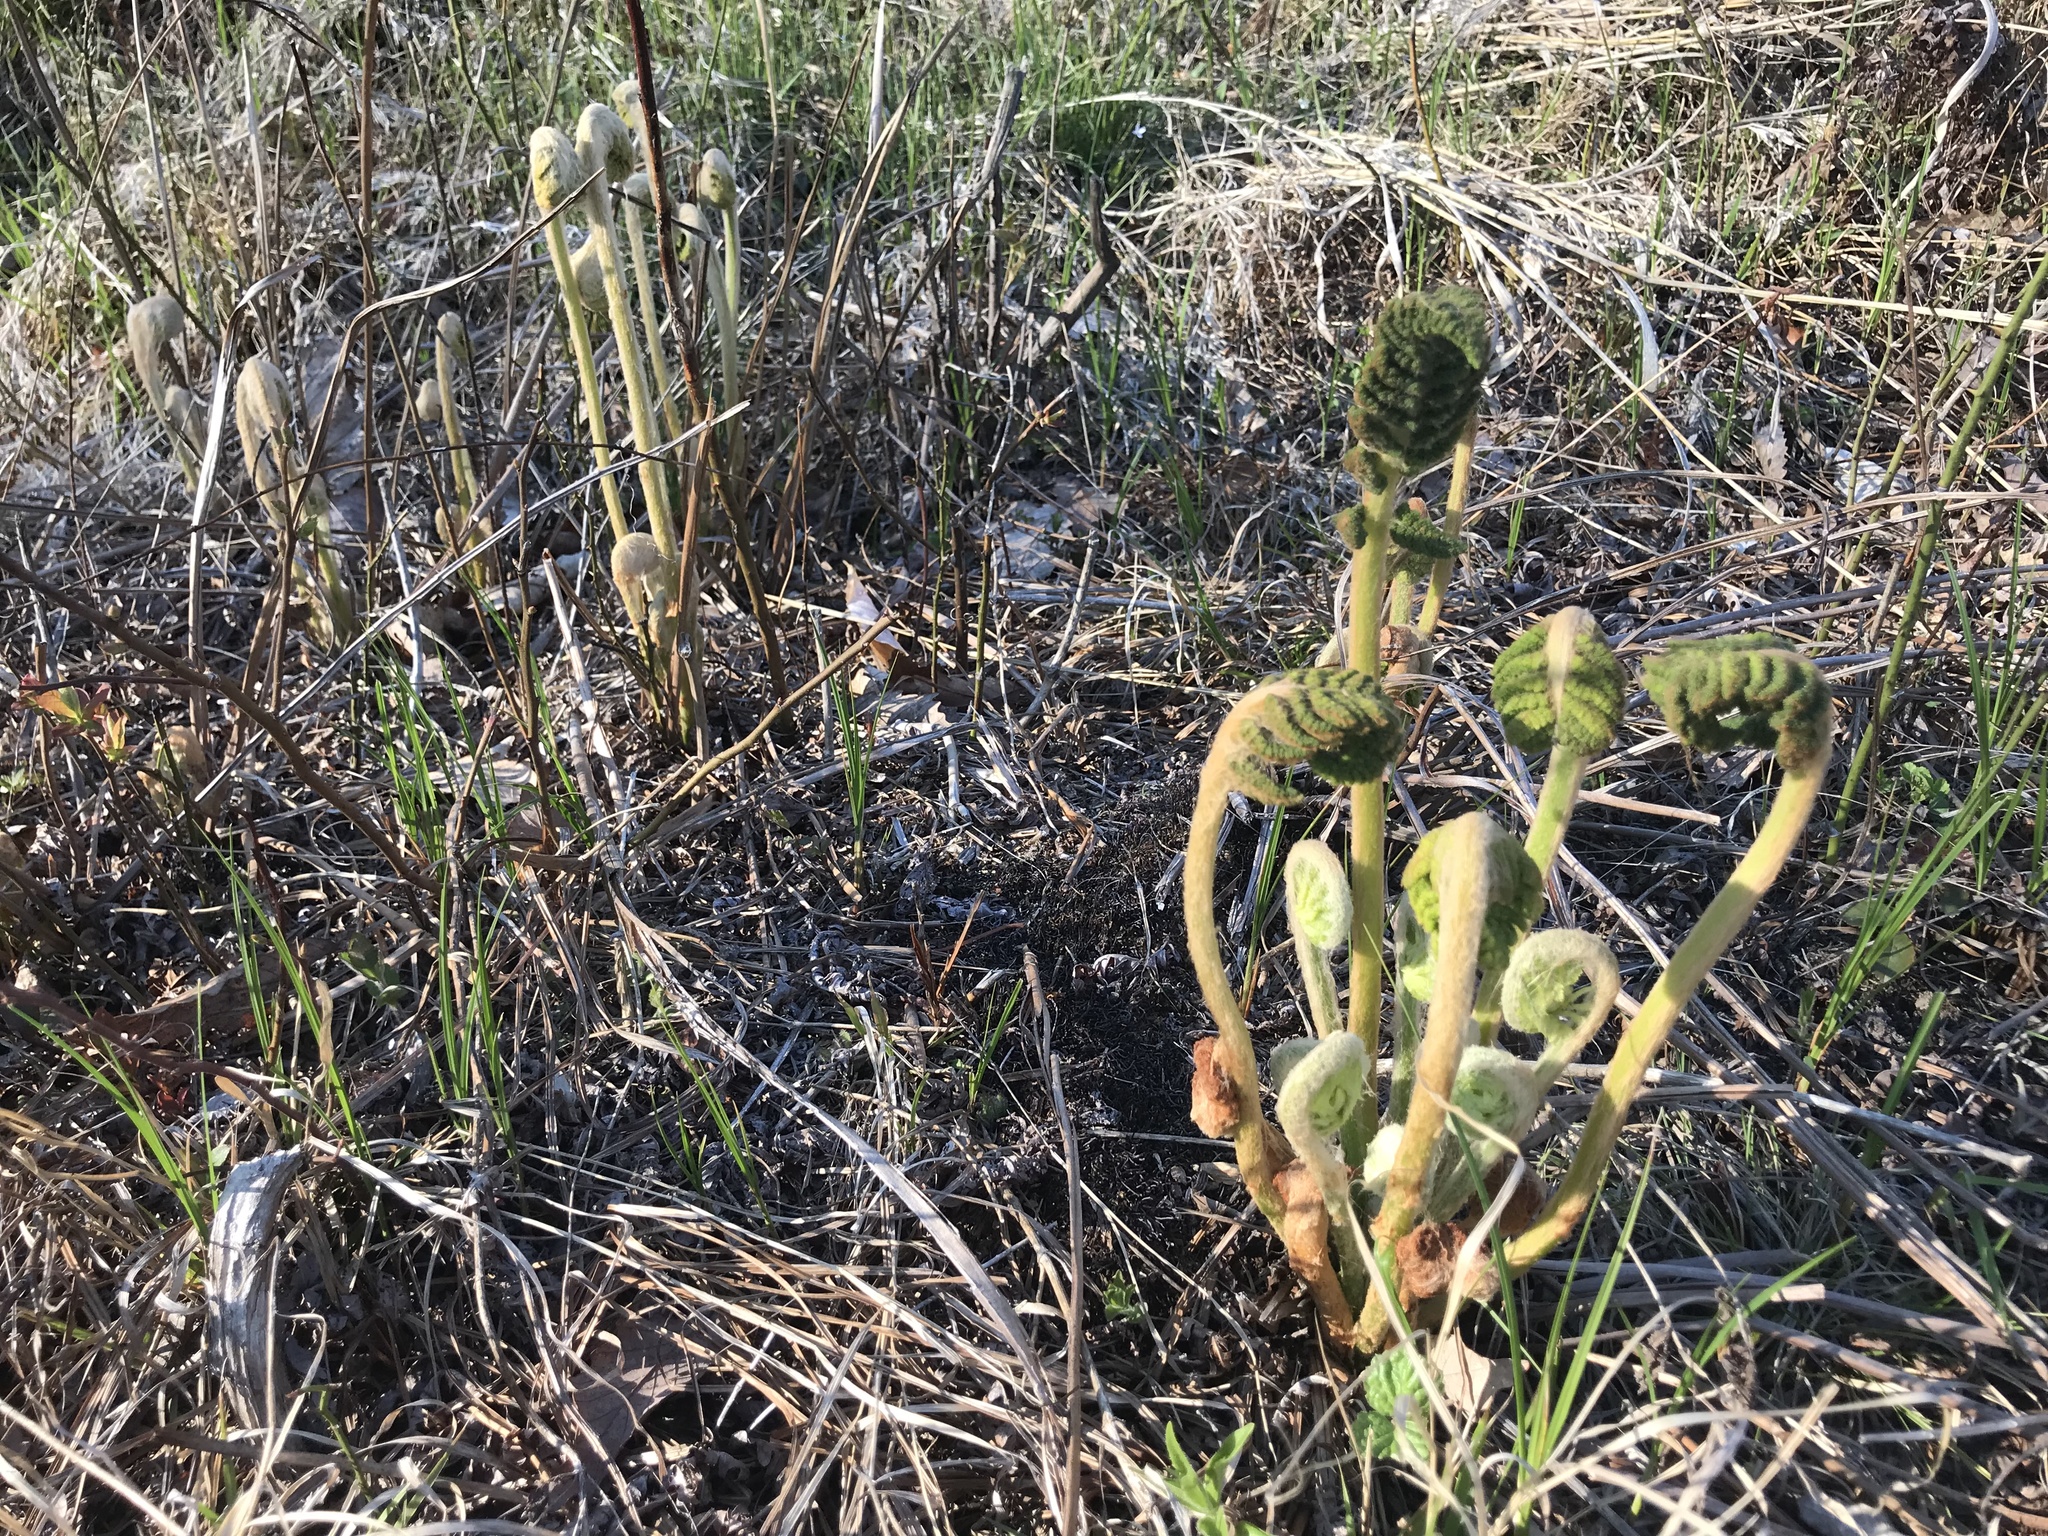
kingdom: Plantae
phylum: Tracheophyta
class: Polypodiopsida
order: Osmundales
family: Osmundaceae
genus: Osmundastrum
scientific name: Osmundastrum cinnamomeum
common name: Cinnamon fern
